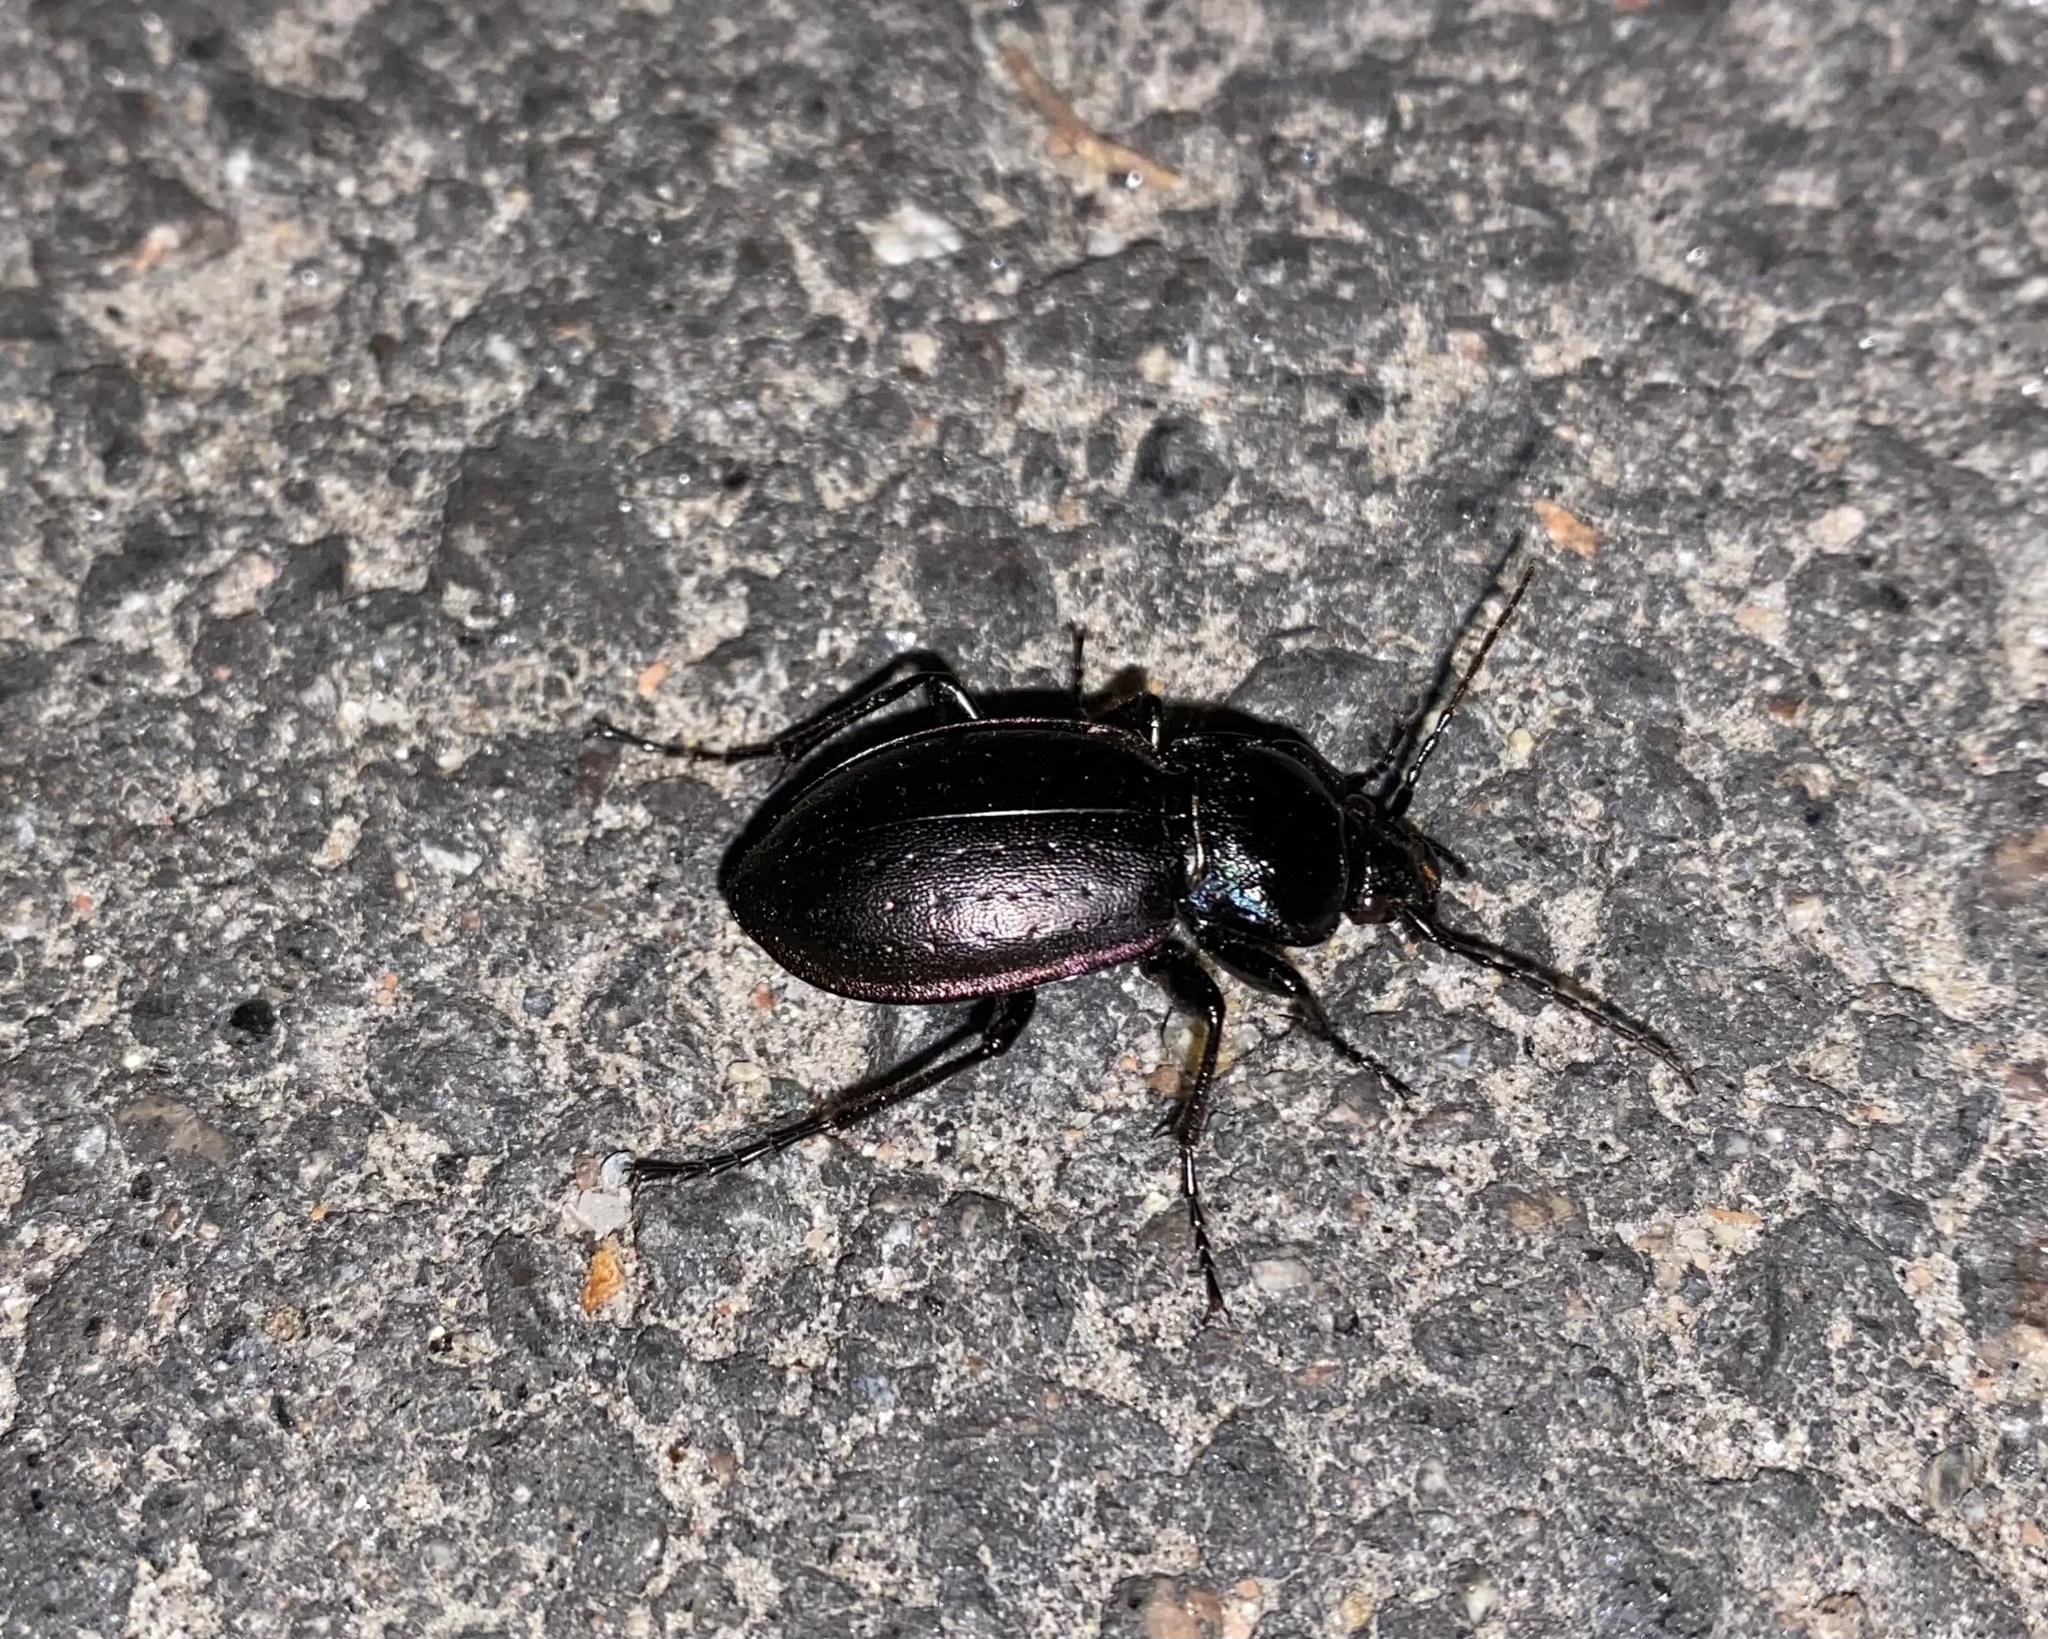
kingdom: Animalia
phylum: Arthropoda
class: Insecta
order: Coleoptera
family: Carabidae
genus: Carabus
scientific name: Carabus nemoralis
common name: European ground beetle
